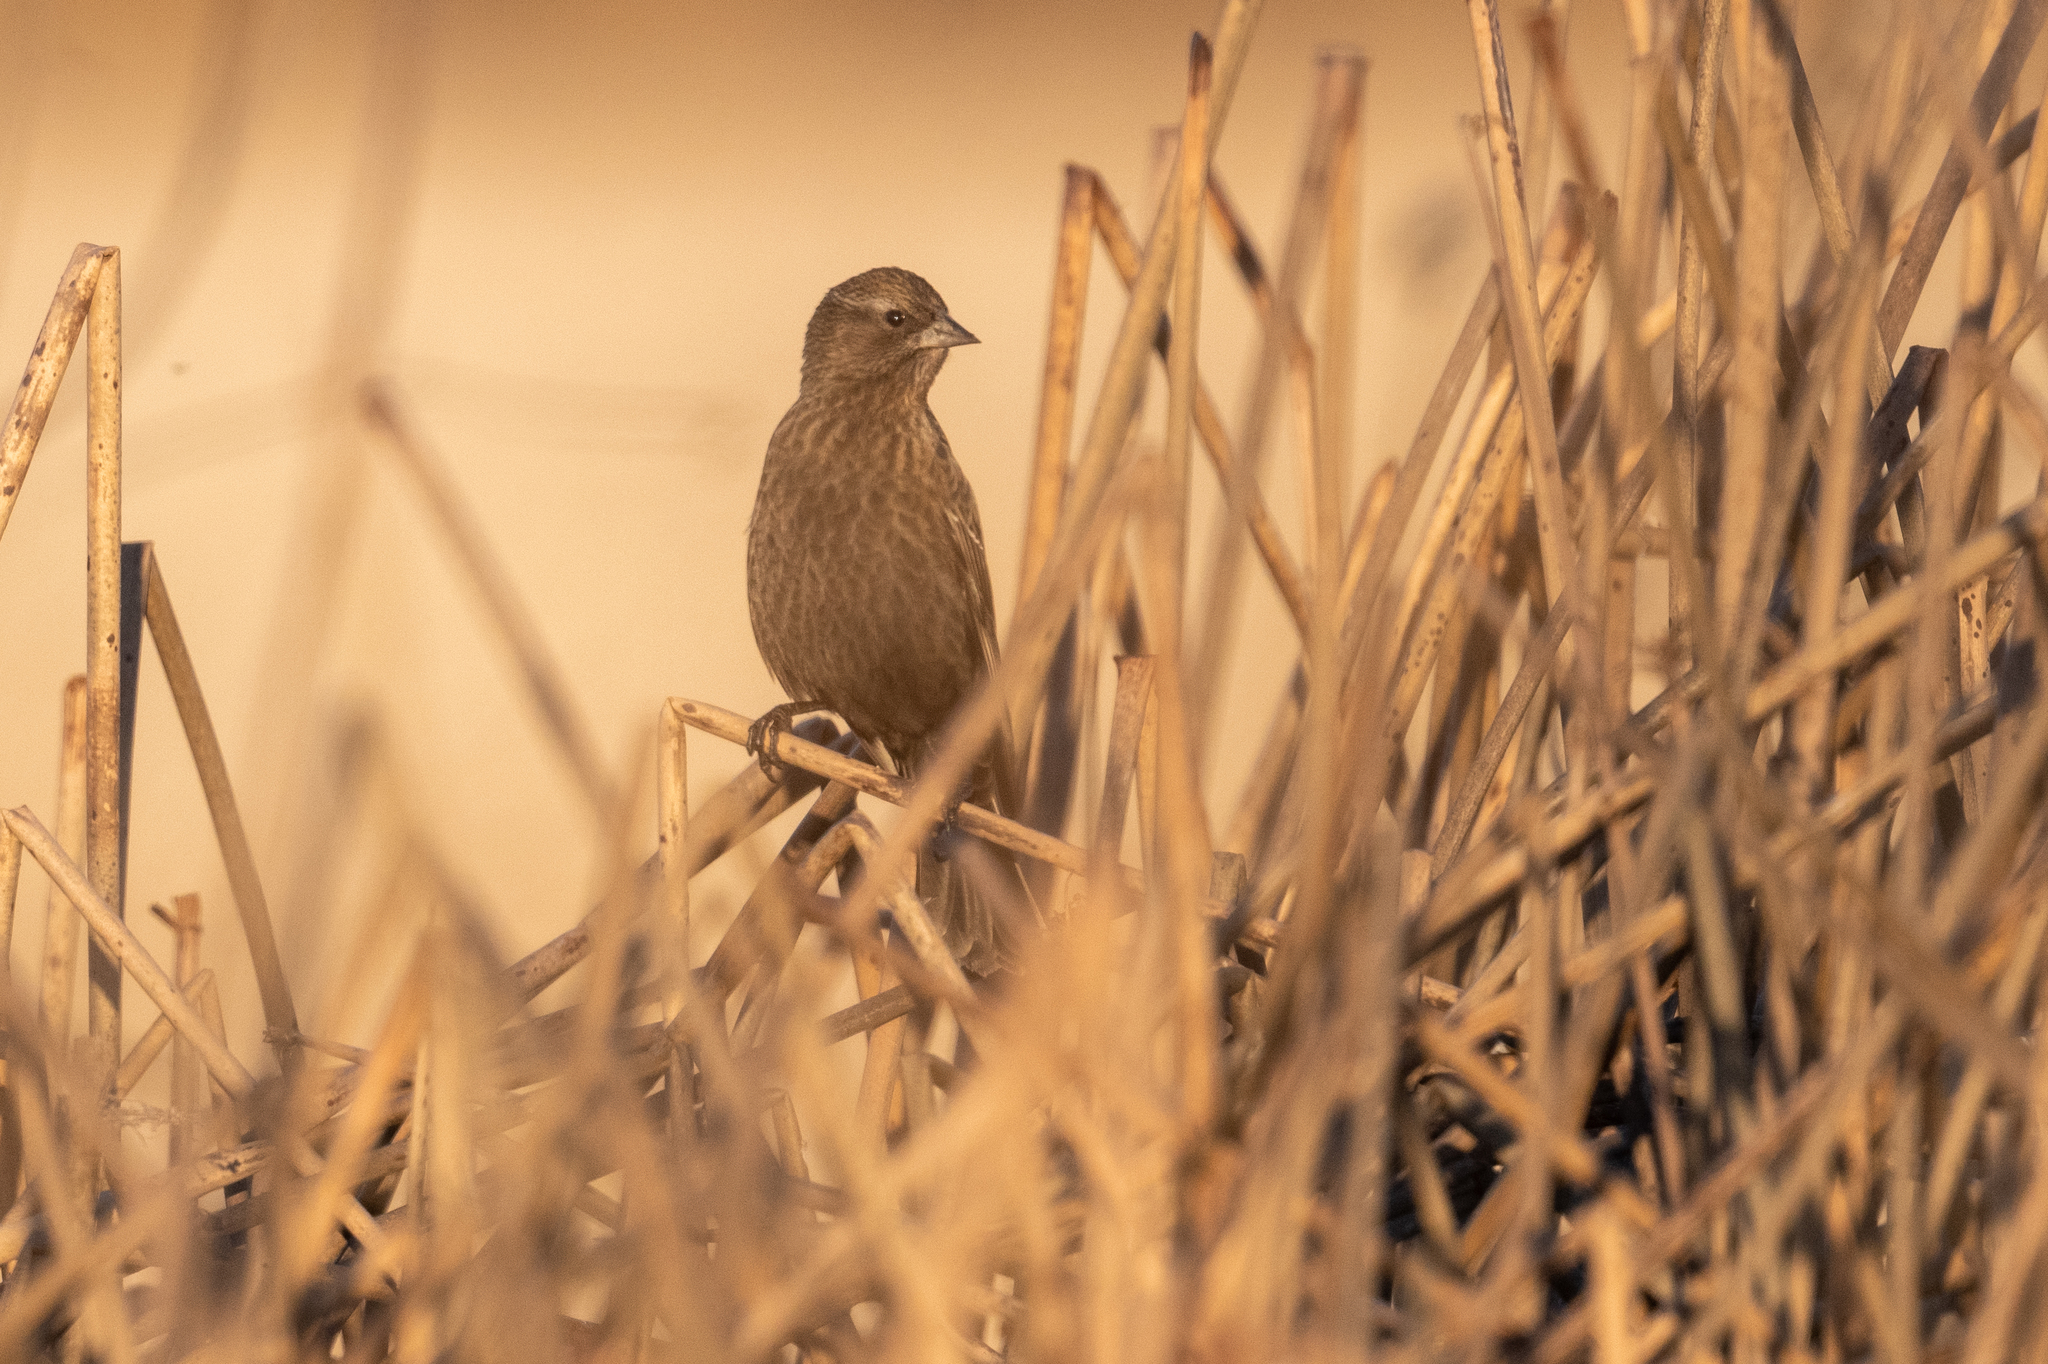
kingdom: Animalia
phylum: Chordata
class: Aves
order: Passeriformes
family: Icteridae
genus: Agelaius
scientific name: Agelaius phoeniceus
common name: Red-winged blackbird
